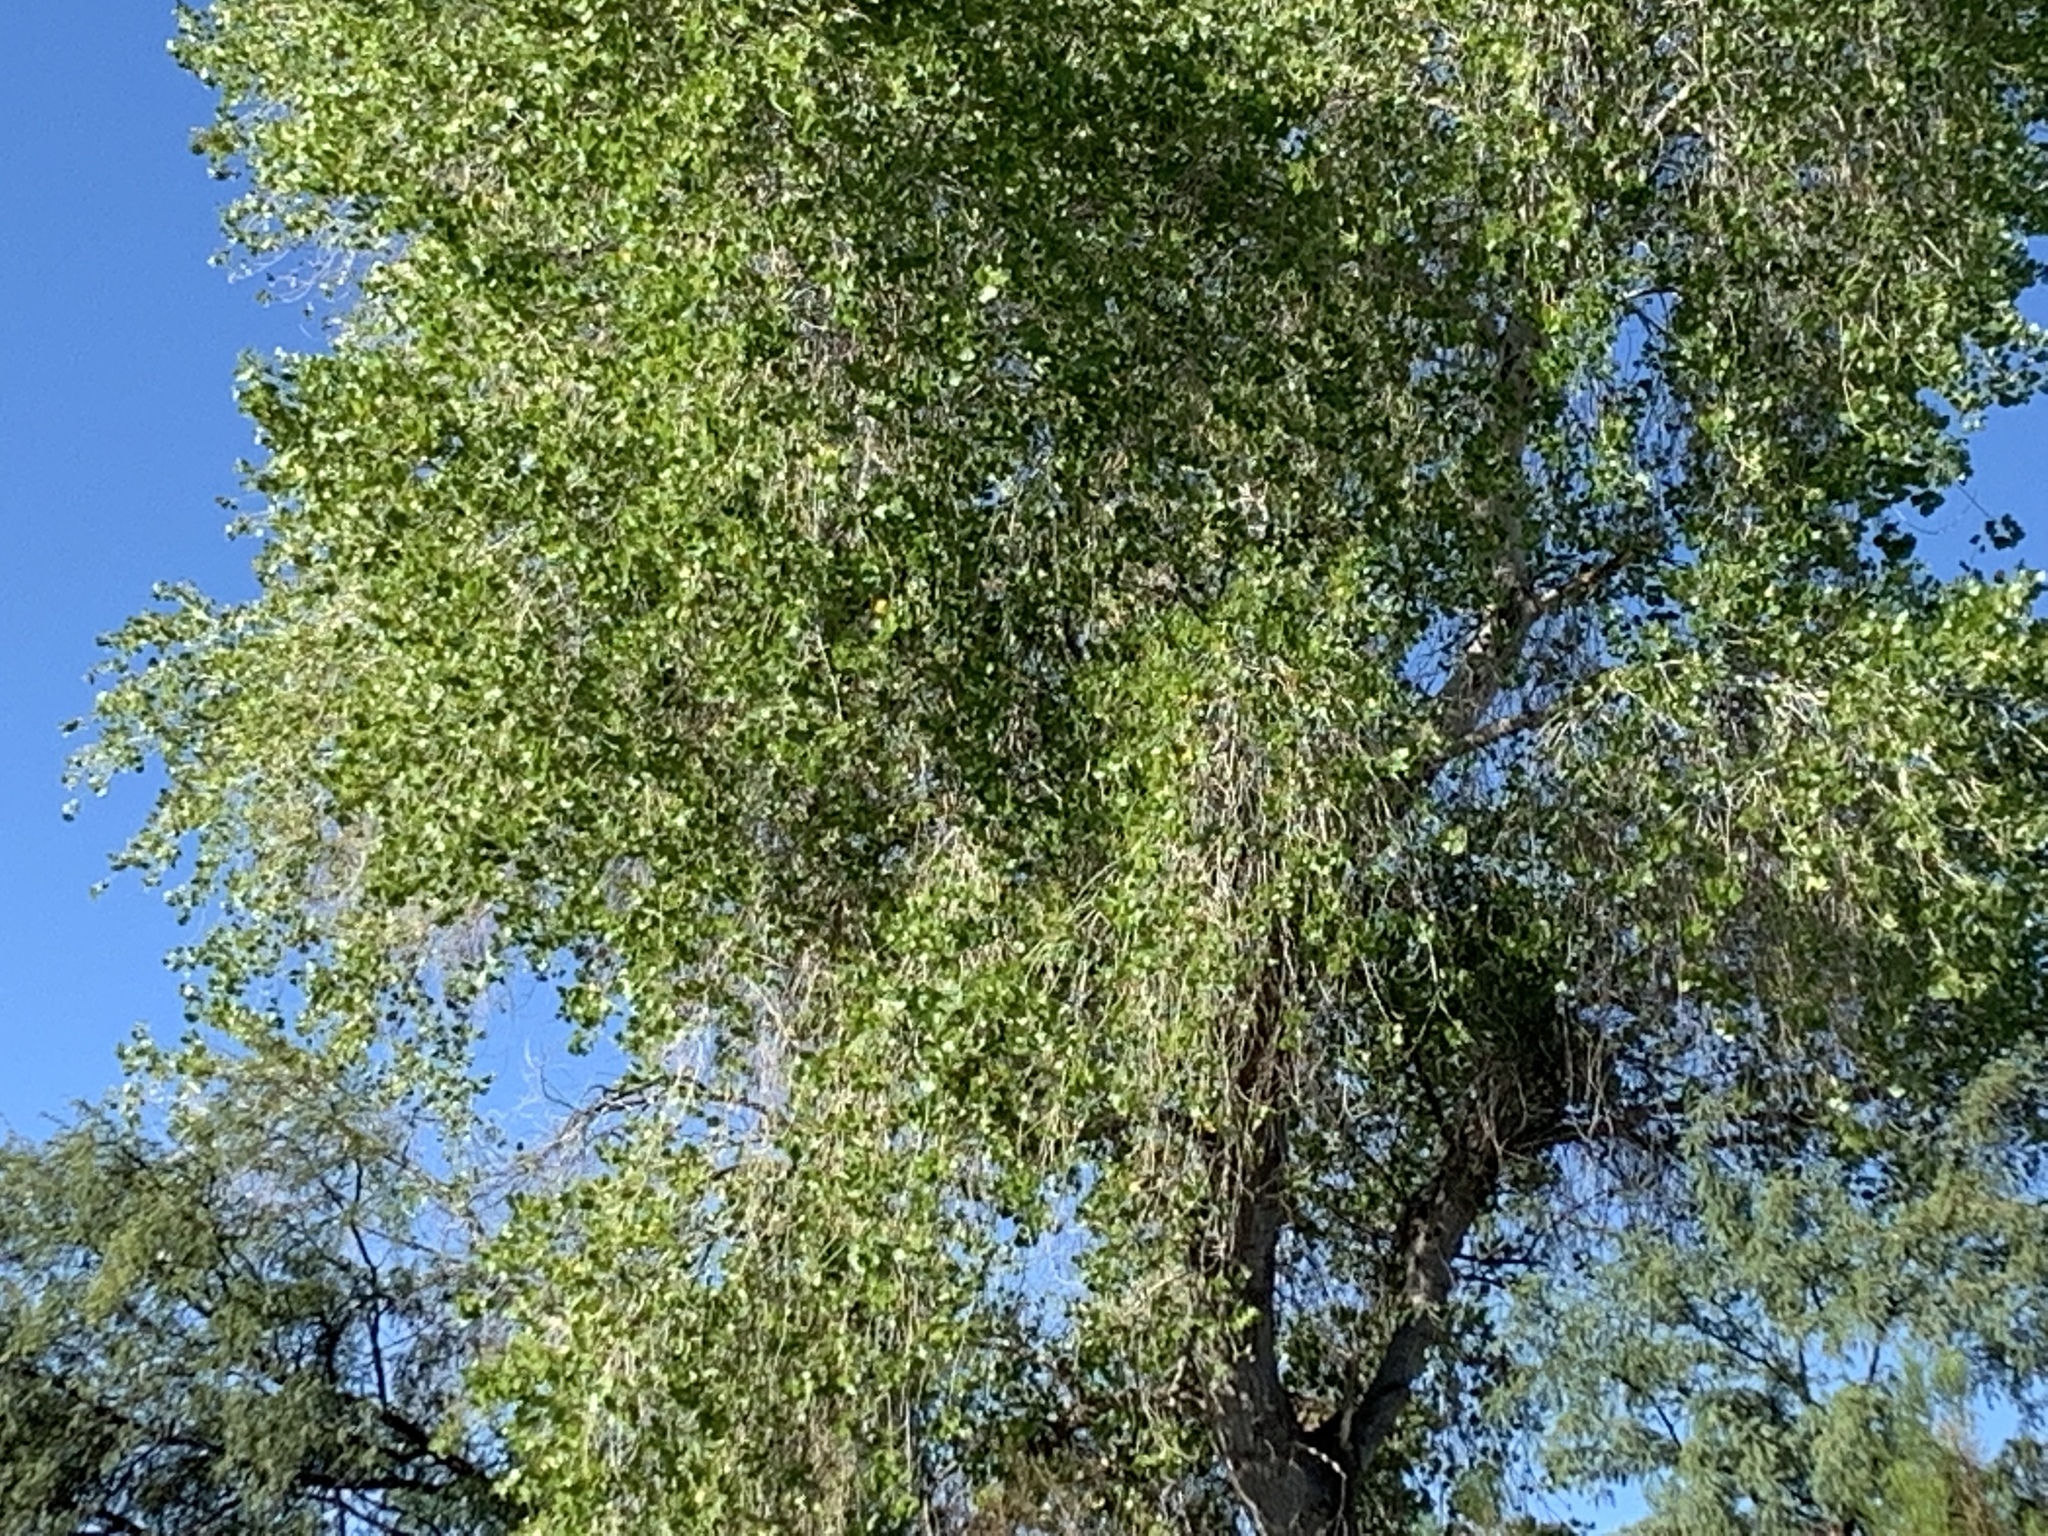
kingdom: Plantae
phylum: Tracheophyta
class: Magnoliopsida
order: Malpighiales
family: Salicaceae
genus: Populus
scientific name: Populus fremontii
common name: Fremont's cottonwood
